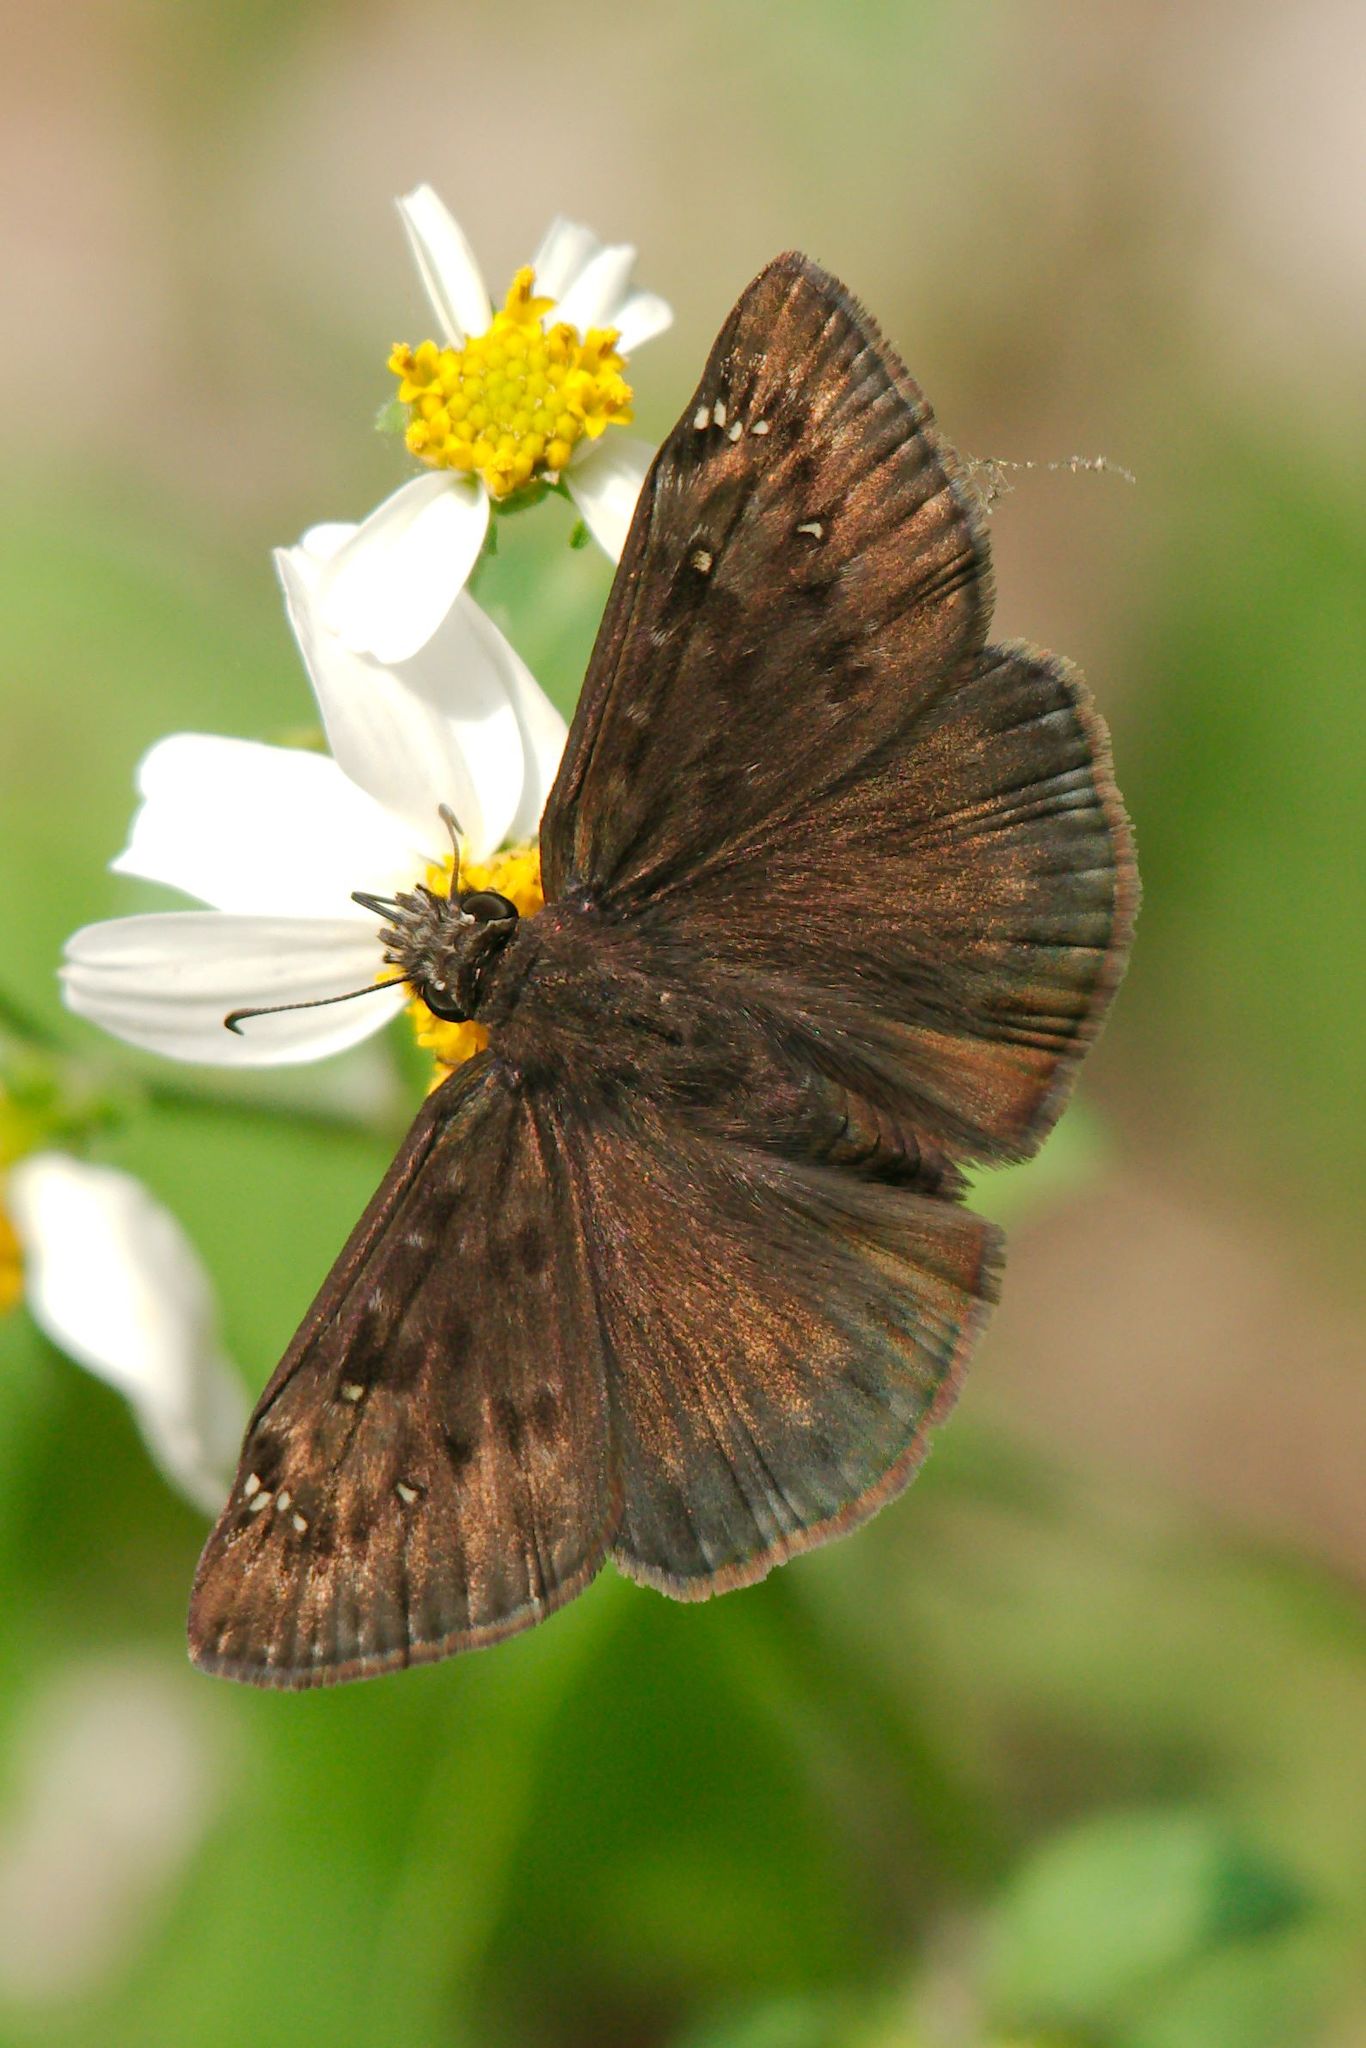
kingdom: Animalia
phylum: Arthropoda
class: Insecta
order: Lepidoptera
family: Hesperiidae
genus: Erynnis
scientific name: Erynnis horatius
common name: Horace's duskywing
